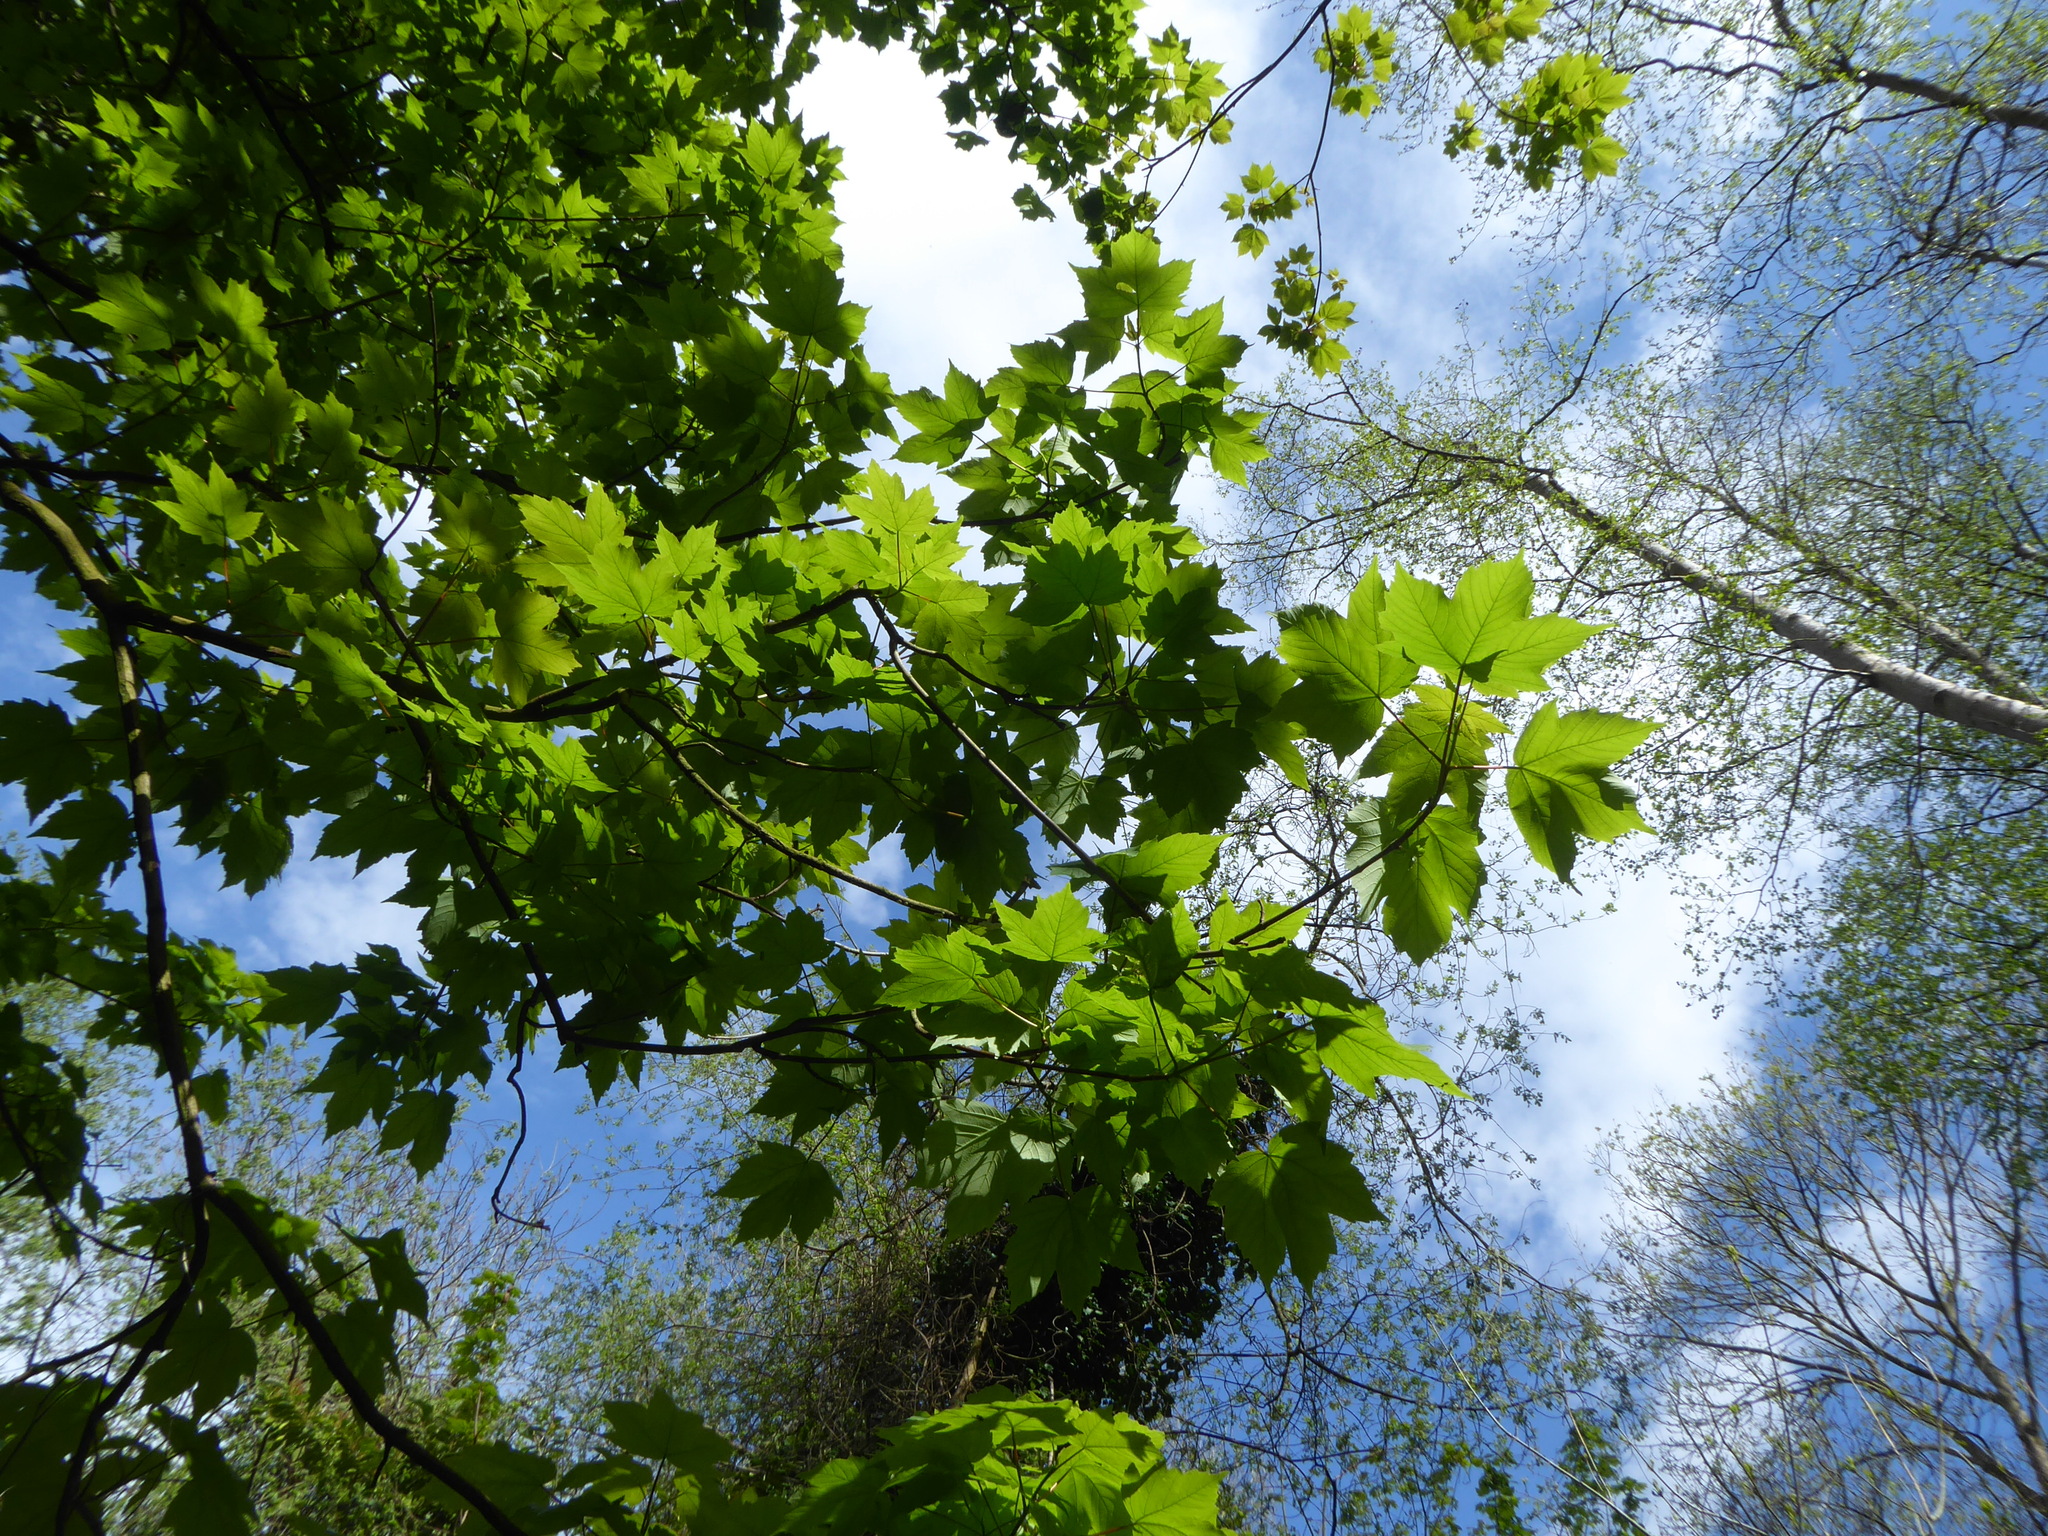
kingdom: Plantae
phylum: Tracheophyta
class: Magnoliopsida
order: Sapindales
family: Sapindaceae
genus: Acer
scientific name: Acer pseudoplatanus
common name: Sycamore
